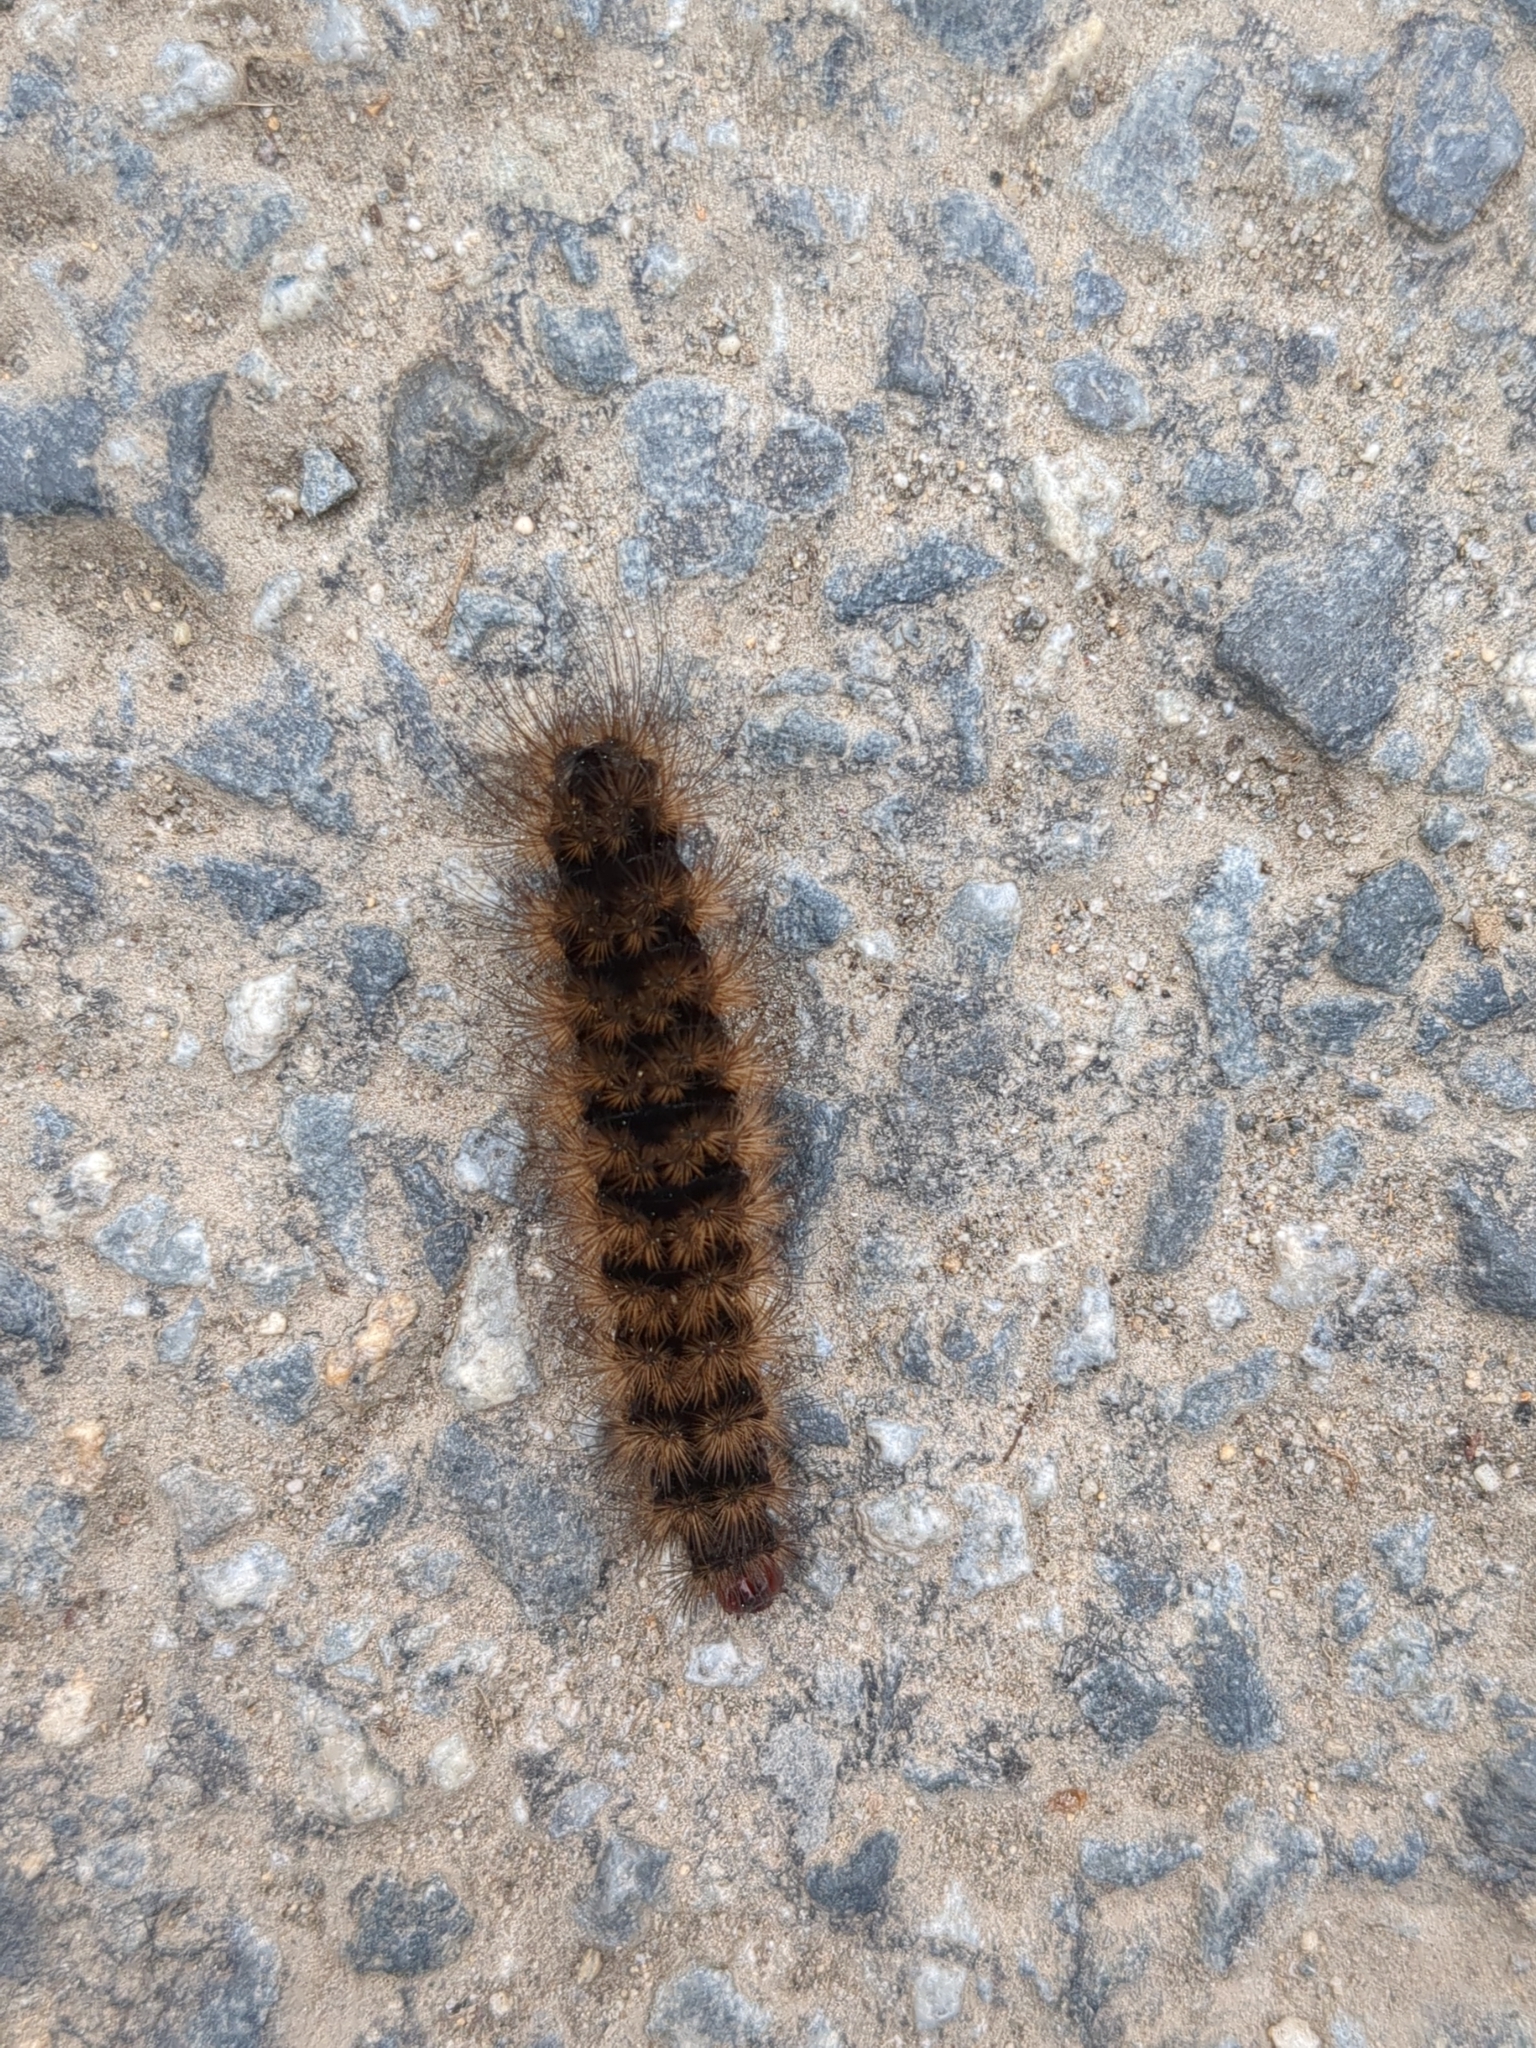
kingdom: Animalia
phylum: Arthropoda
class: Insecta
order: Lepidoptera
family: Erebidae
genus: Epicallia
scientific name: Epicallia villica
